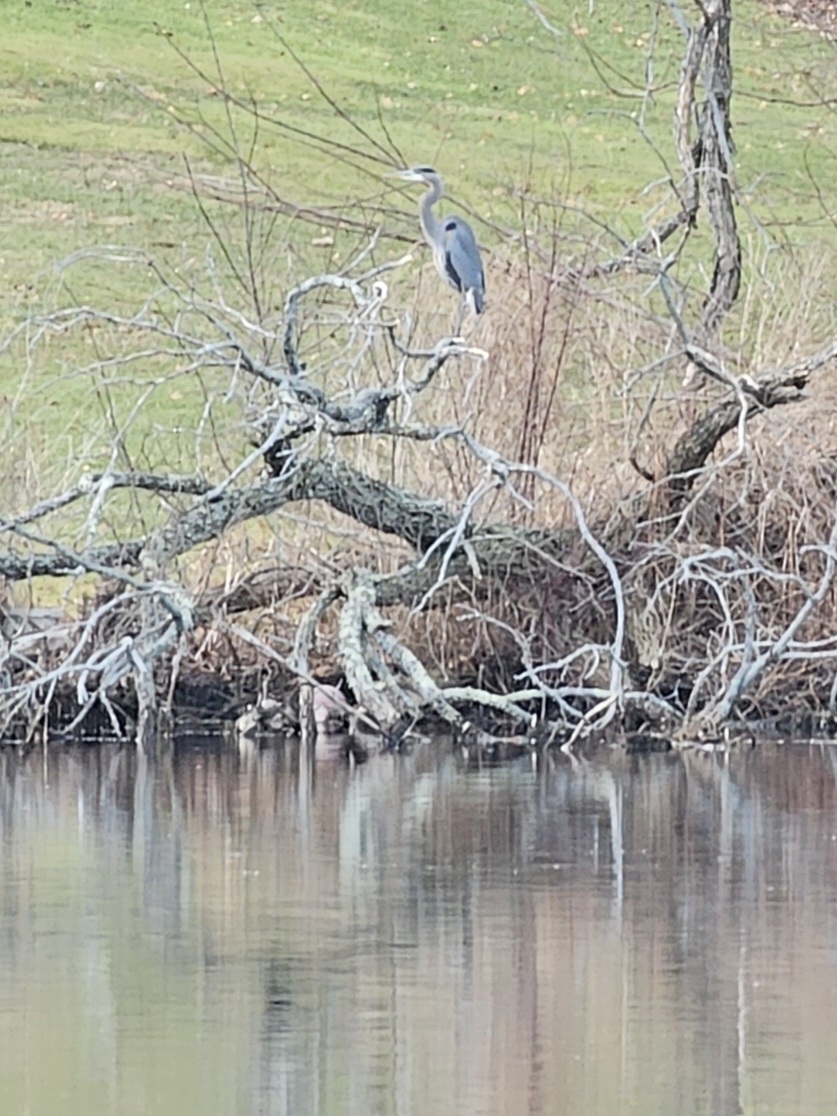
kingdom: Animalia
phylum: Chordata
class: Aves
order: Pelecaniformes
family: Ardeidae
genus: Ardea
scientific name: Ardea herodias
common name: Great blue heron
